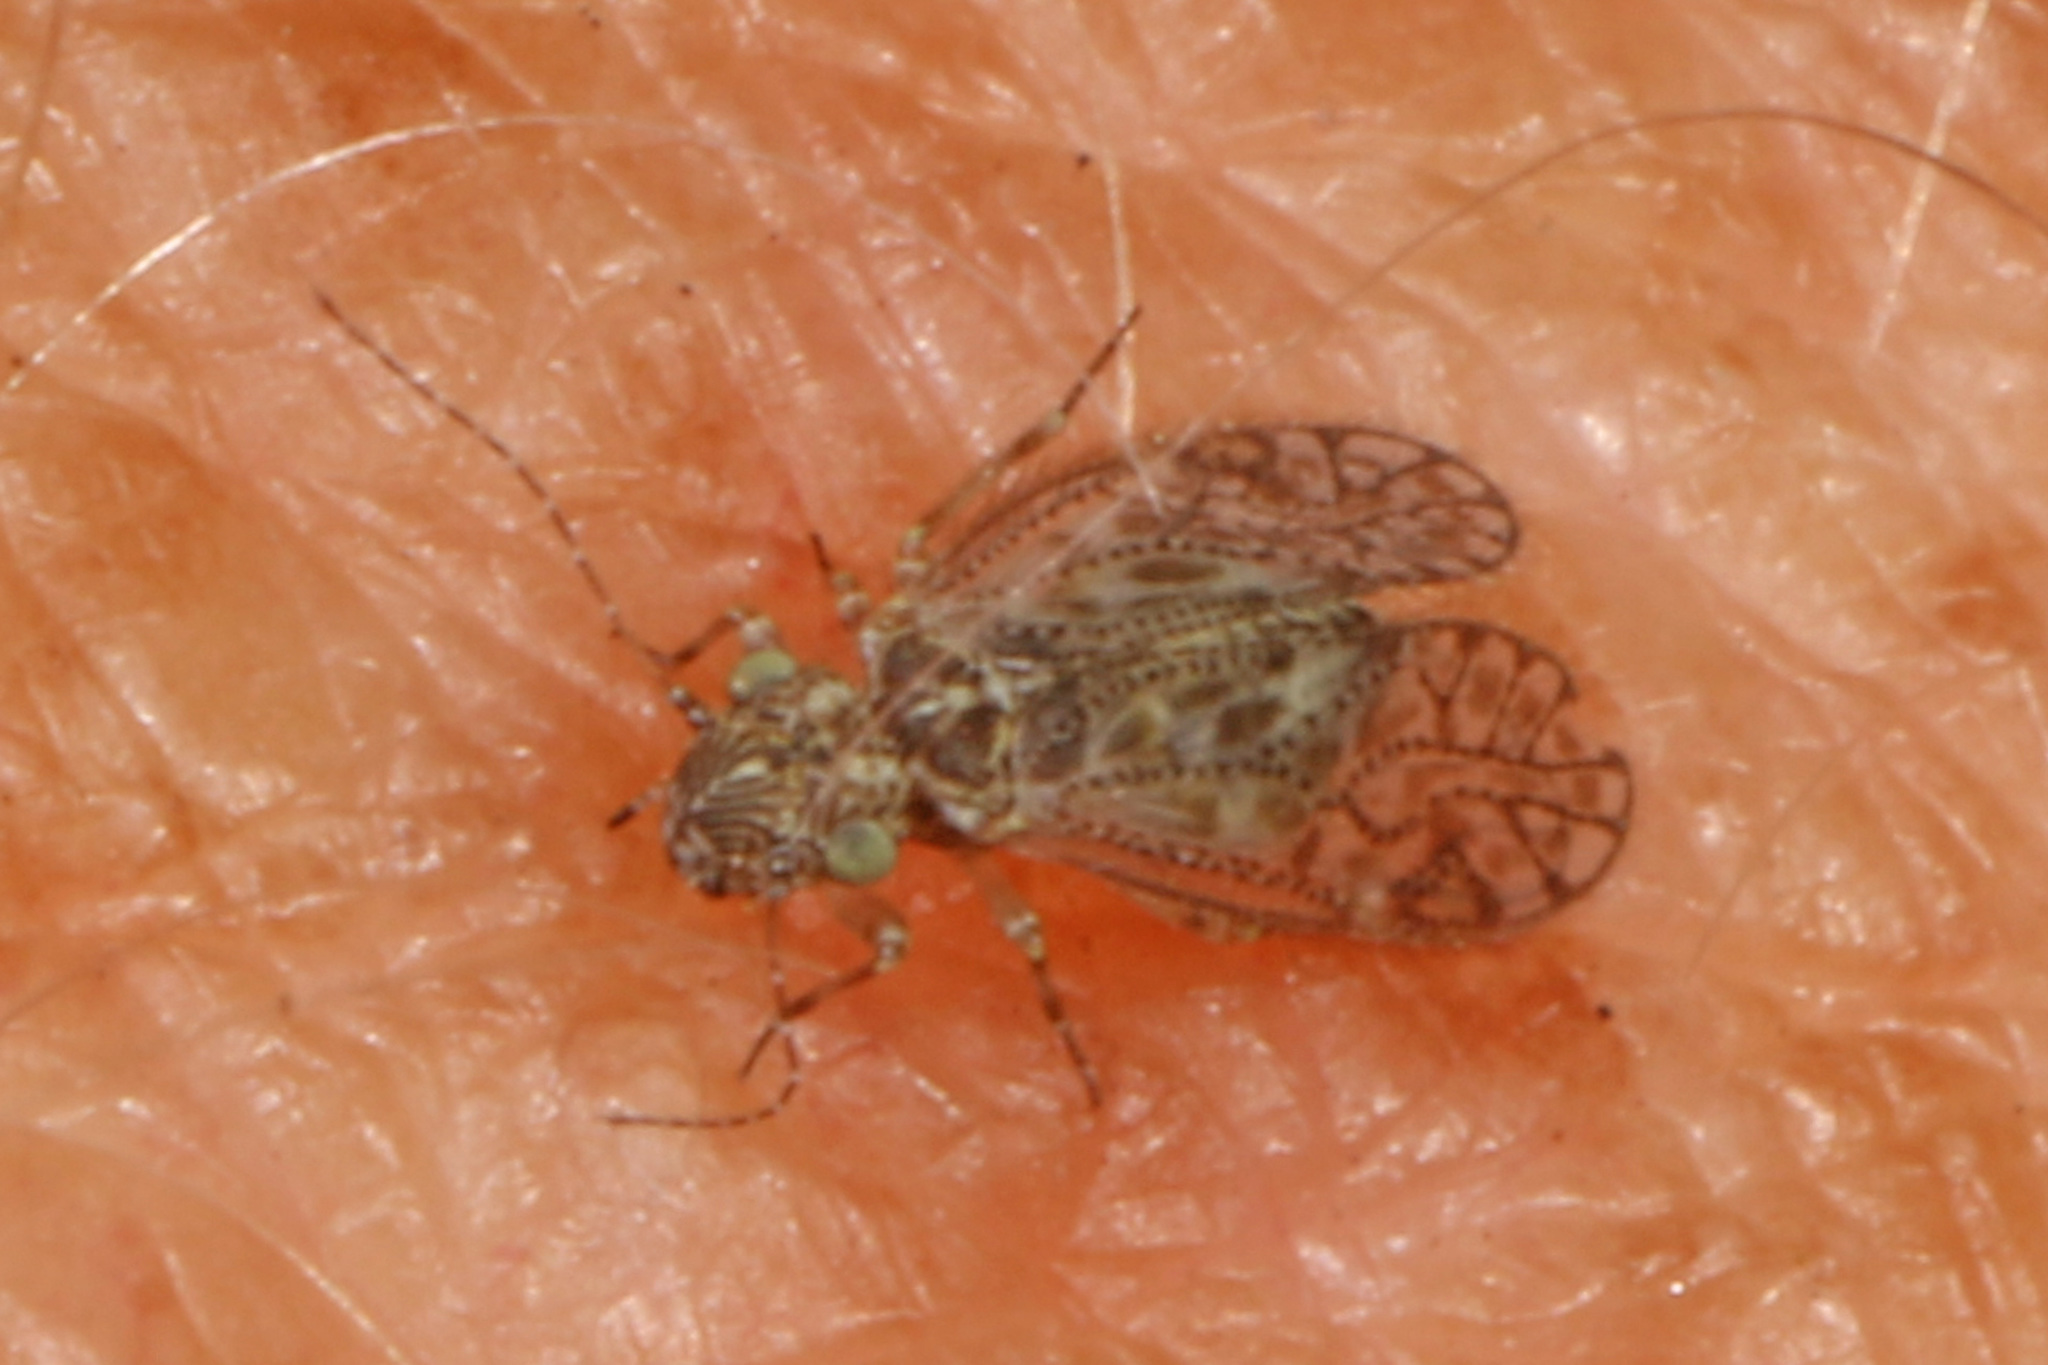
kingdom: Animalia
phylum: Arthropoda
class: Insecta
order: Psocodea
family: Philotarsidae
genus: Aaroniella
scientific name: Aaroniella badonneli
